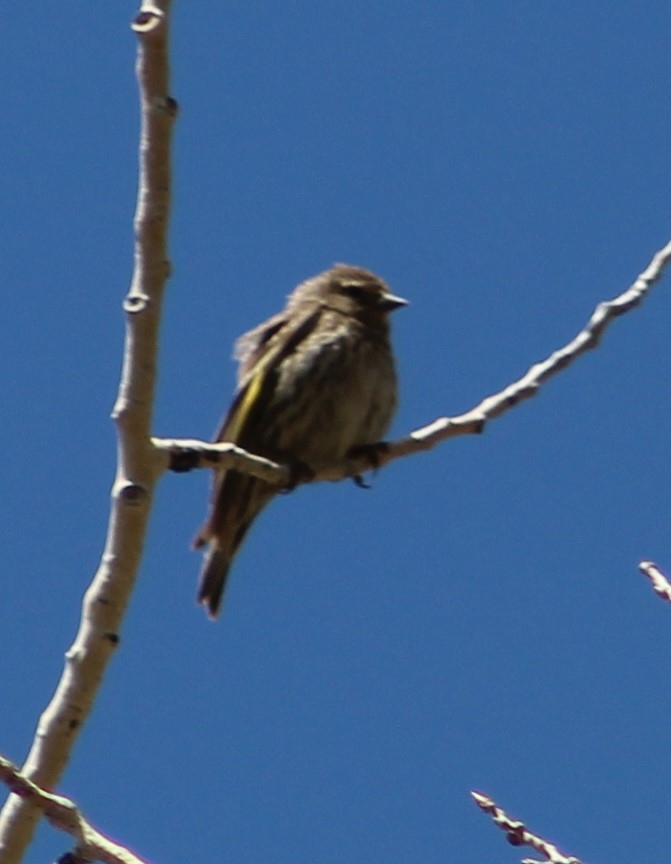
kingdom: Animalia
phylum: Chordata
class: Aves
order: Passeriformes
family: Fringillidae
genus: Spinus
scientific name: Spinus pinus
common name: Pine siskin
